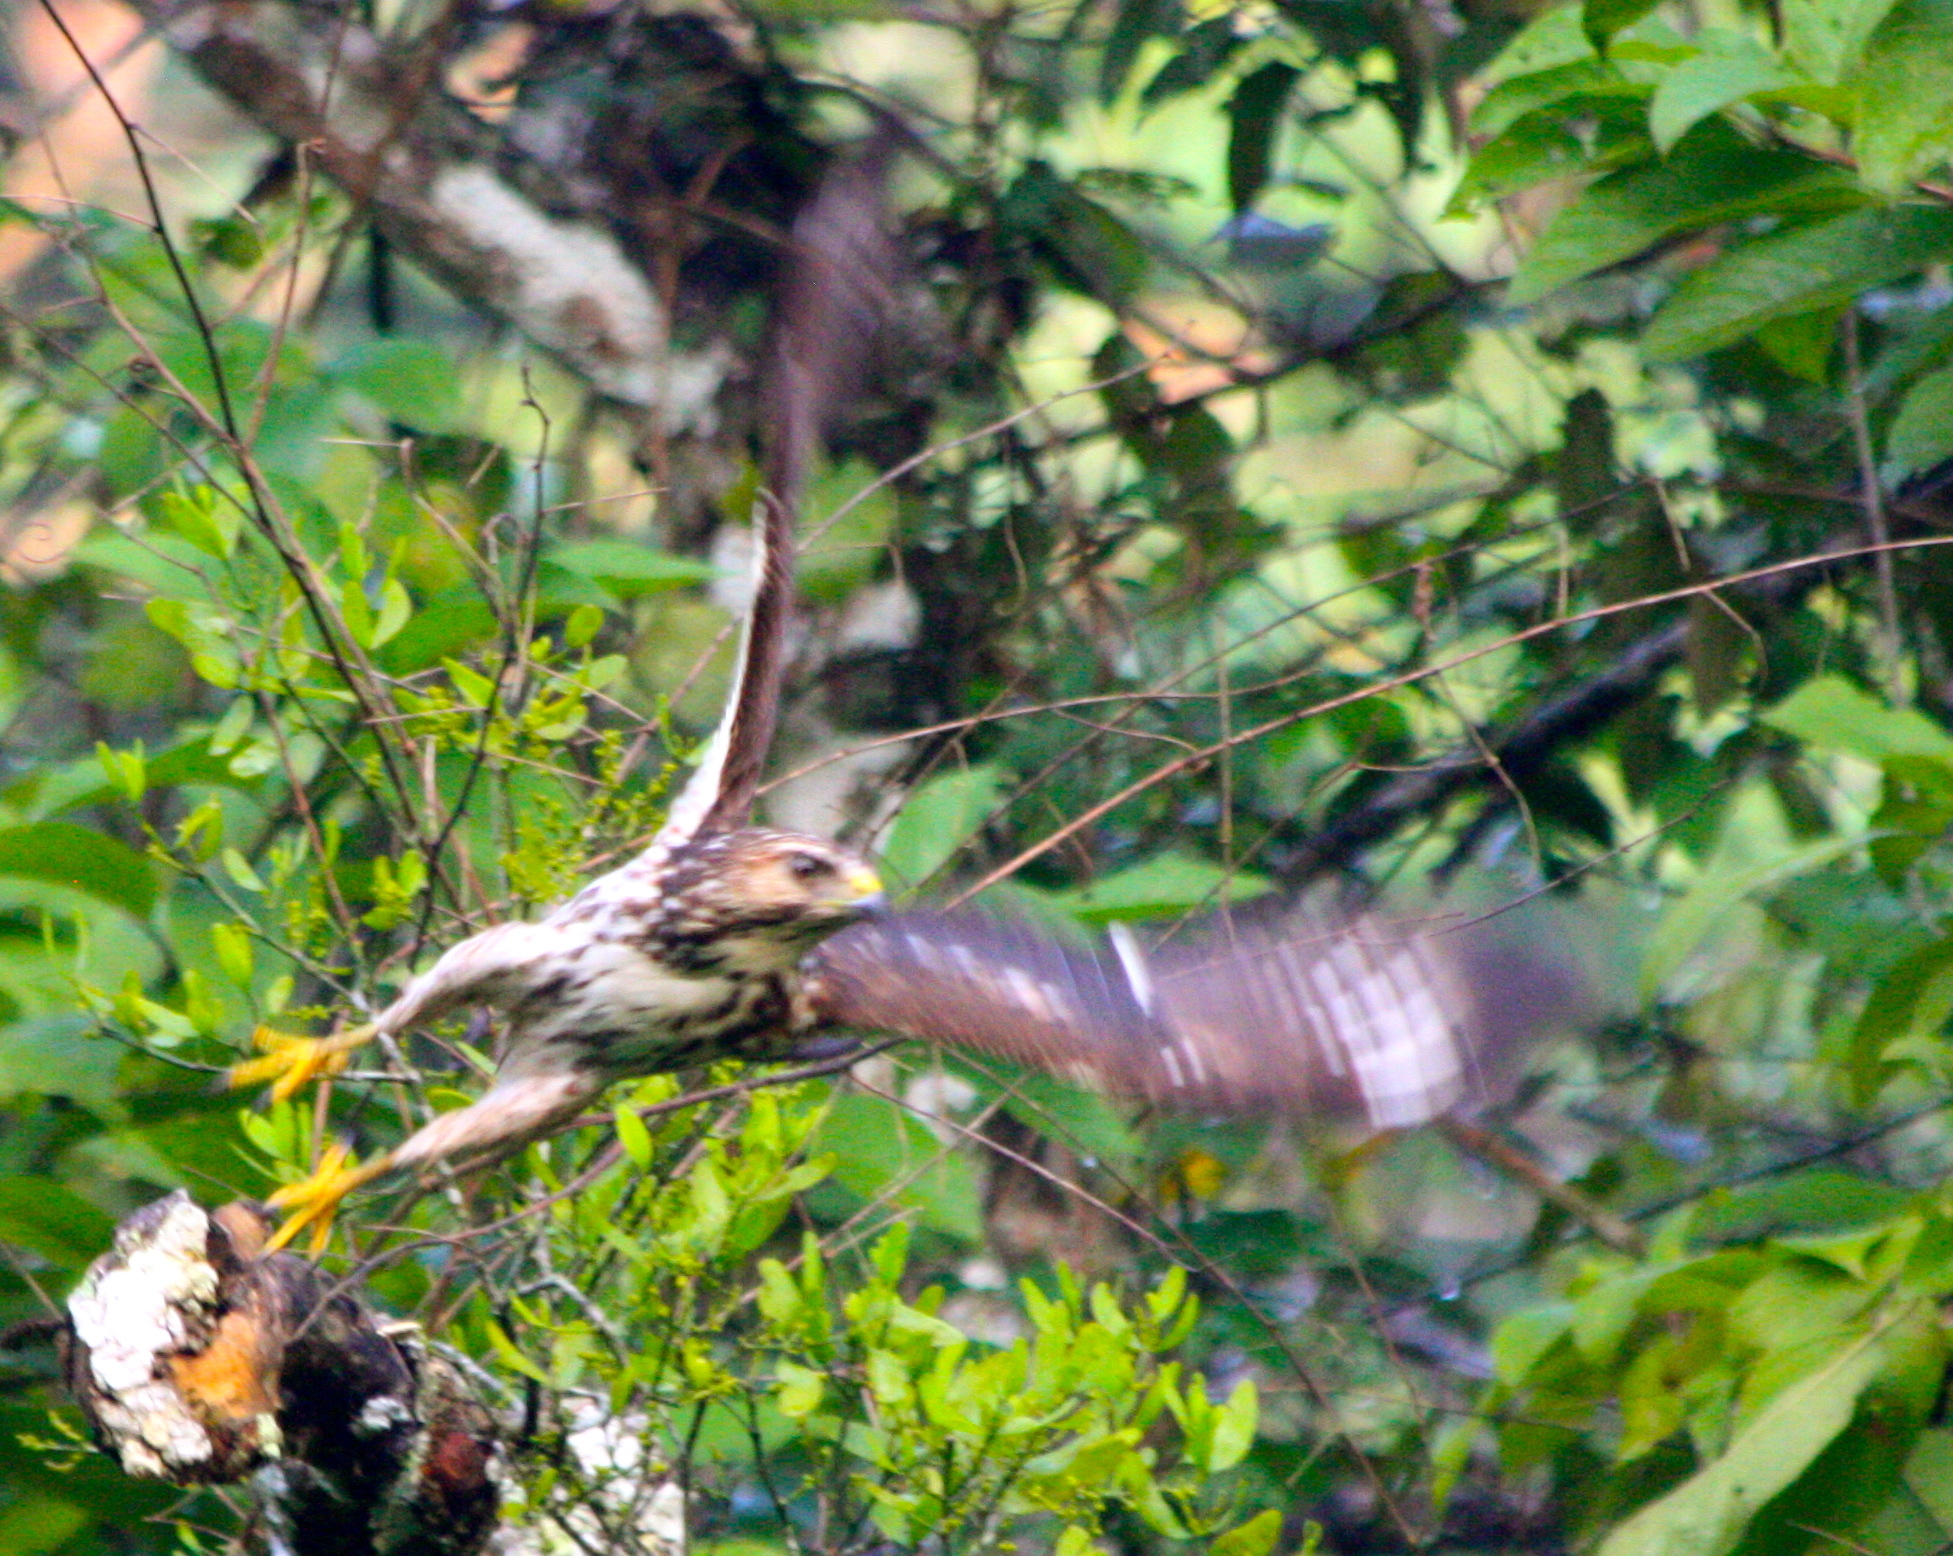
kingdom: Animalia
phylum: Chordata
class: Aves
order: Accipitriformes
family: Accipitridae
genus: Buteo
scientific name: Buteo platypterus
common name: Broad-winged hawk
